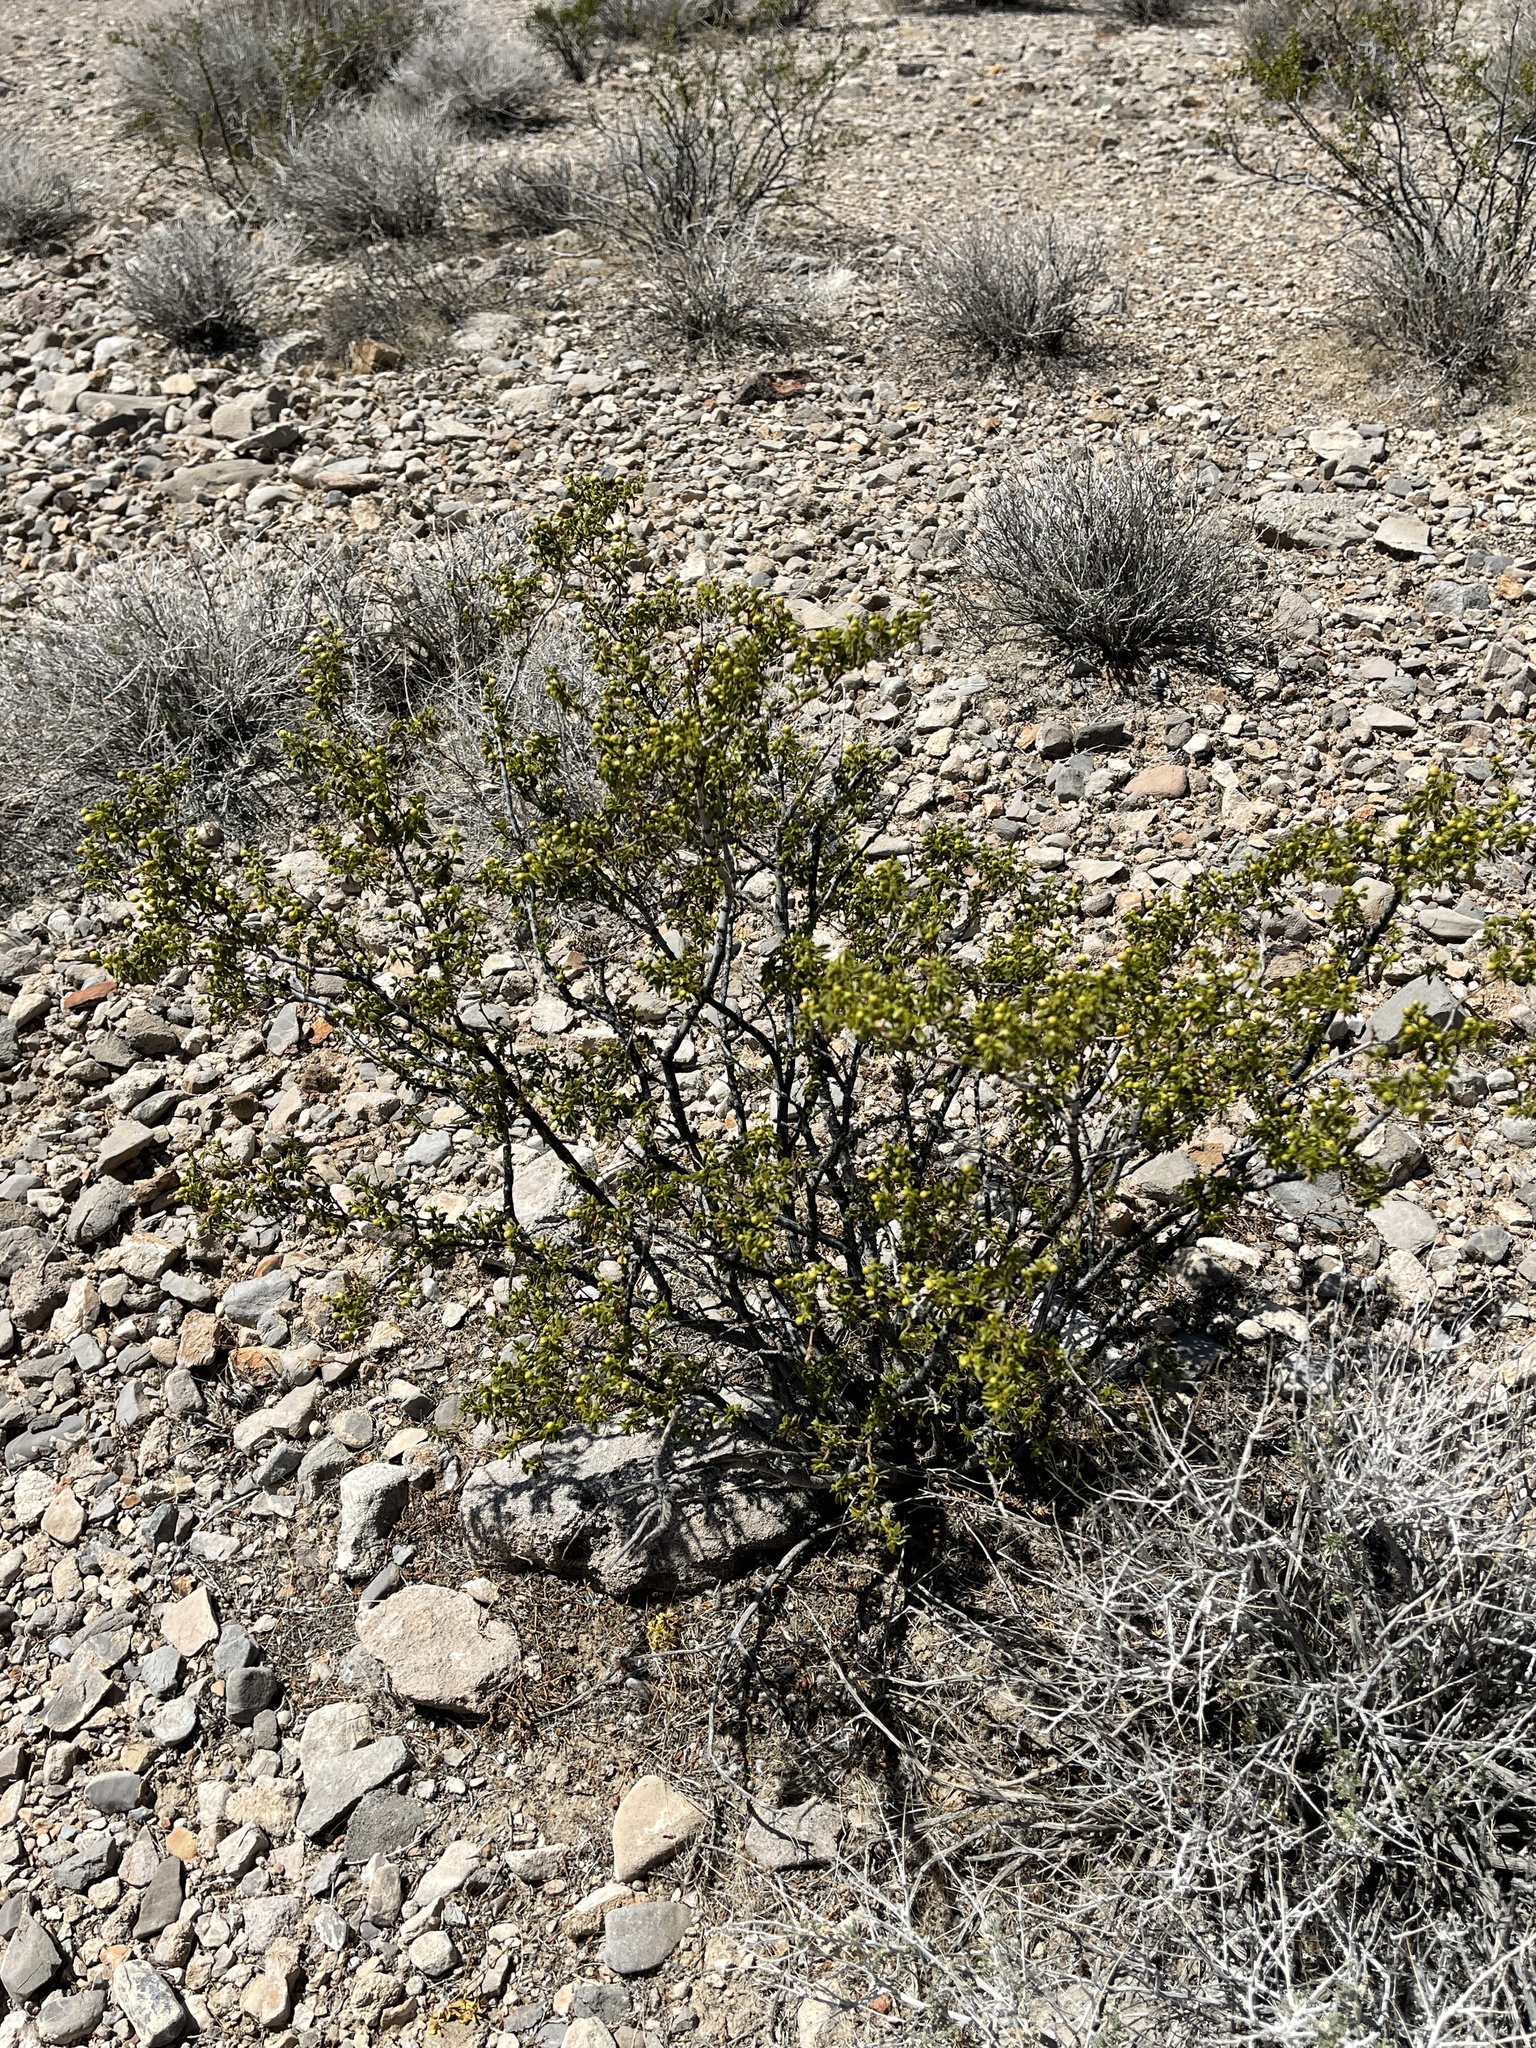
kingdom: Plantae
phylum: Tracheophyta
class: Magnoliopsida
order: Zygophyllales
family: Zygophyllaceae
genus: Larrea
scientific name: Larrea tridentata
